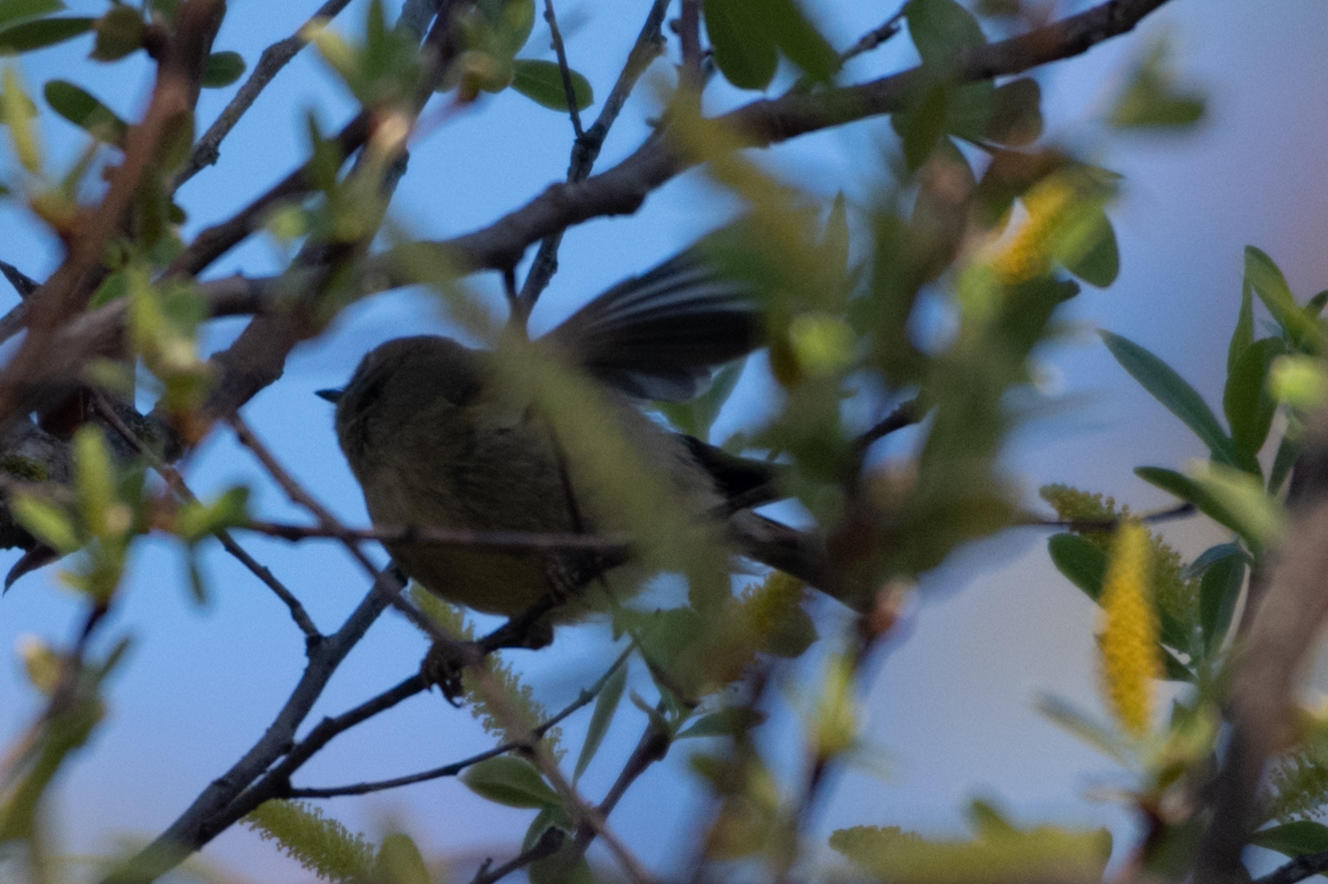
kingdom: Animalia
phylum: Chordata
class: Aves
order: Passeriformes
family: Regulidae
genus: Regulus
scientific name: Regulus calendula
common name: Ruby-crowned kinglet
